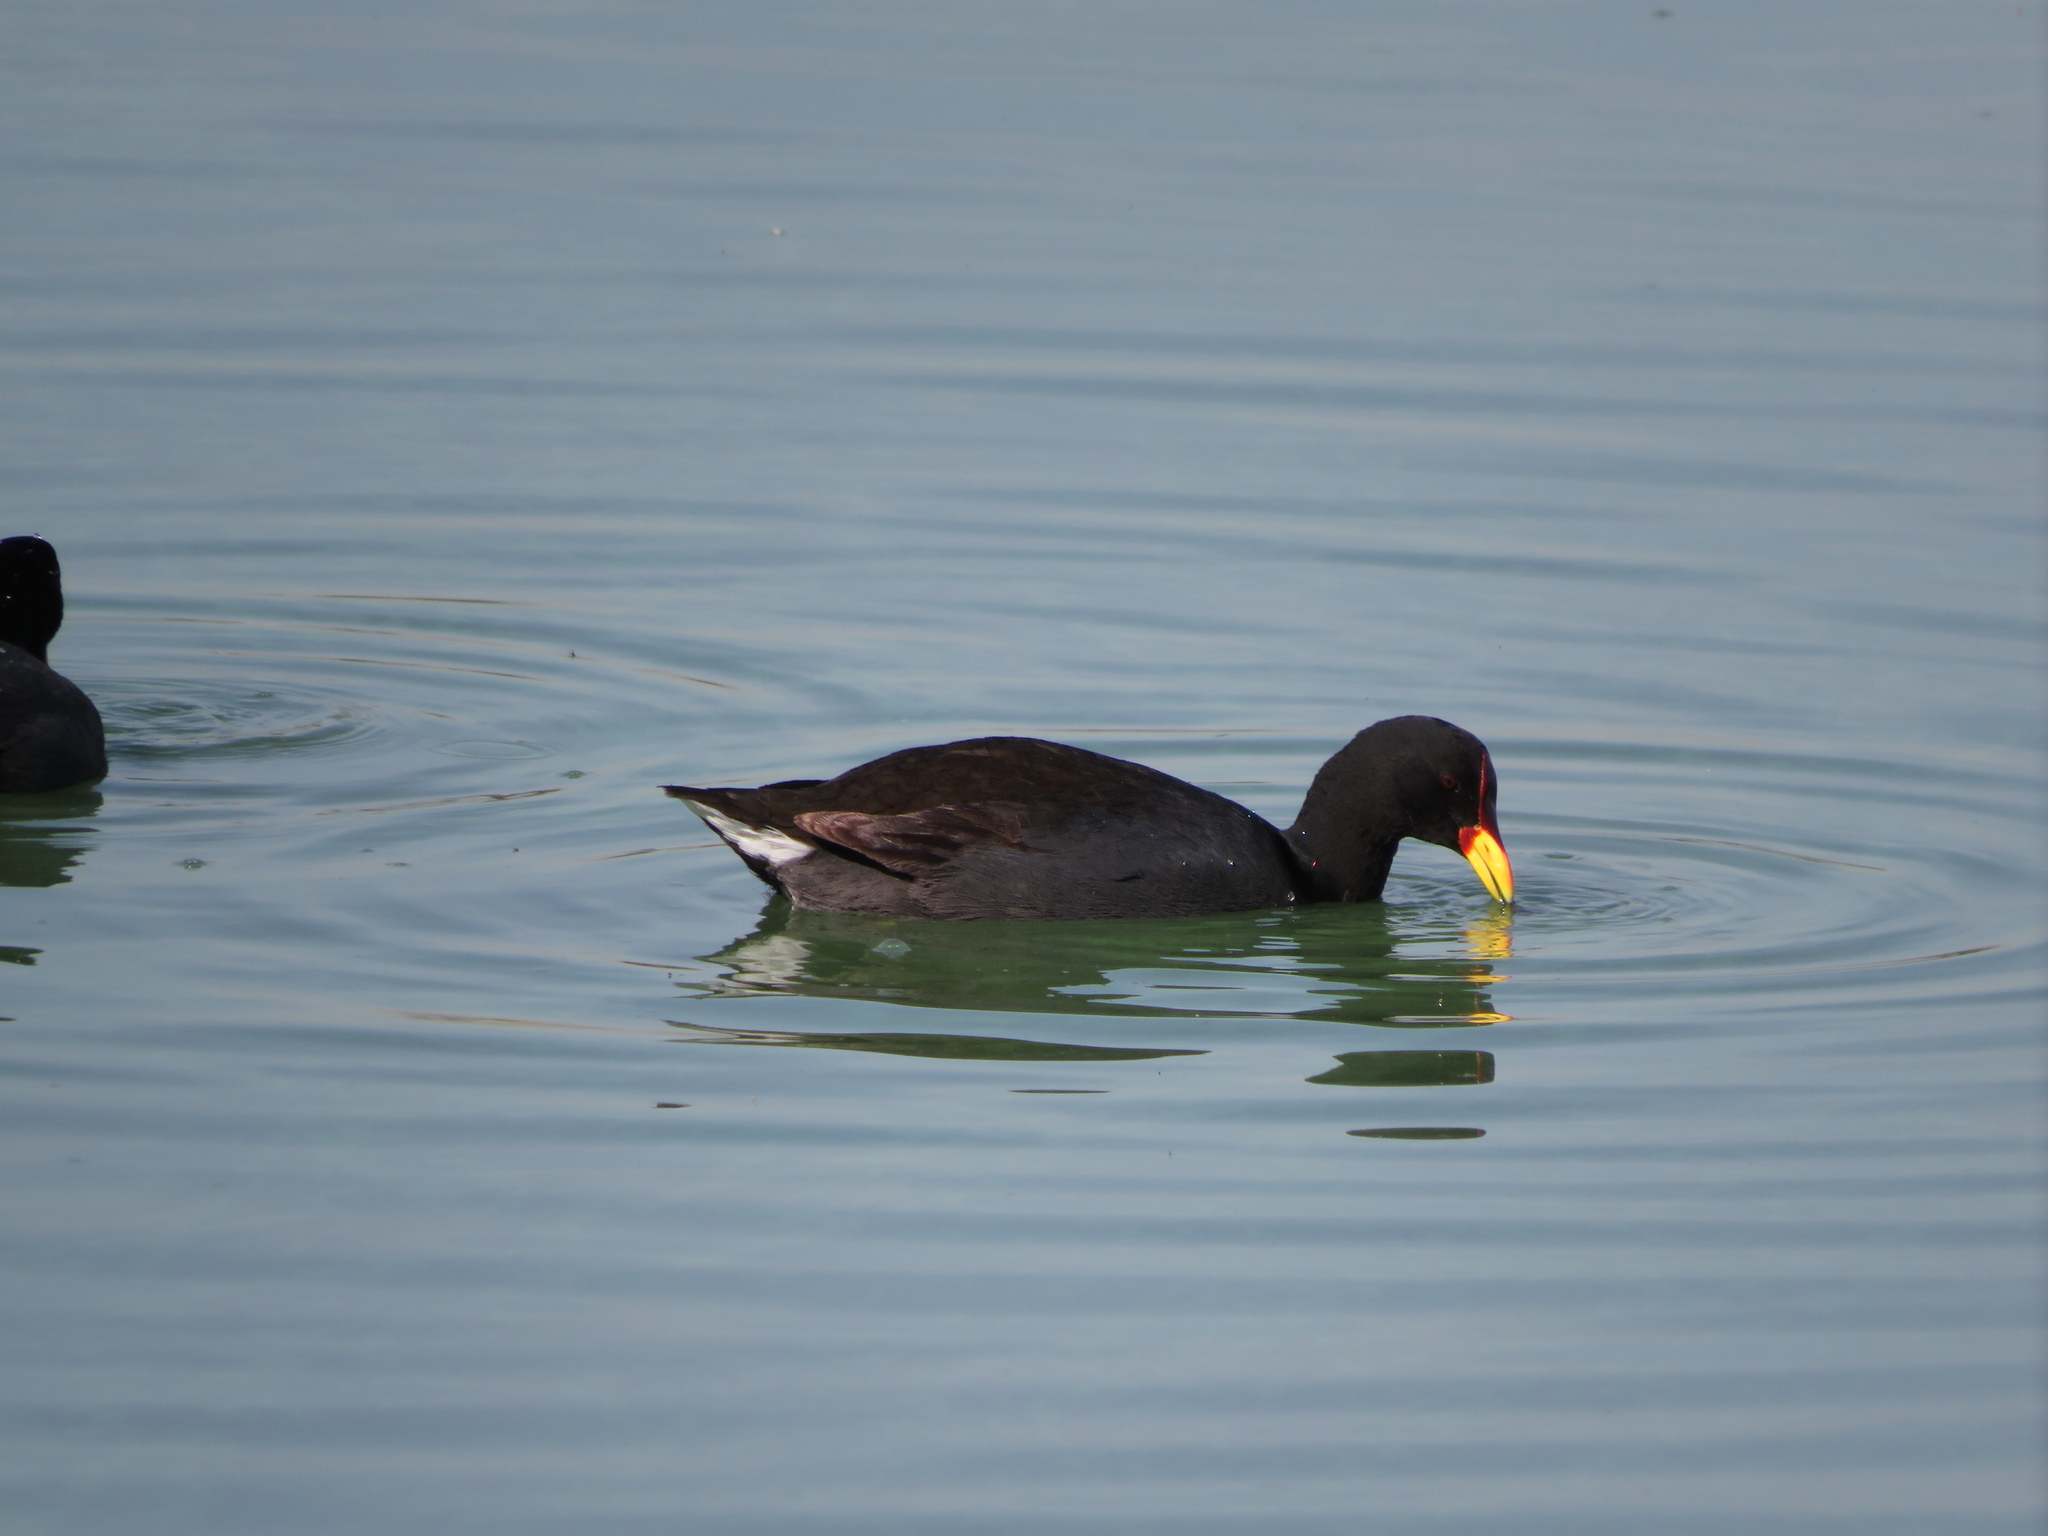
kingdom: Animalia
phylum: Chordata
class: Aves
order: Gruiformes
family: Rallidae
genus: Fulica
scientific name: Fulica rufifrons
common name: Red-fronted coot
